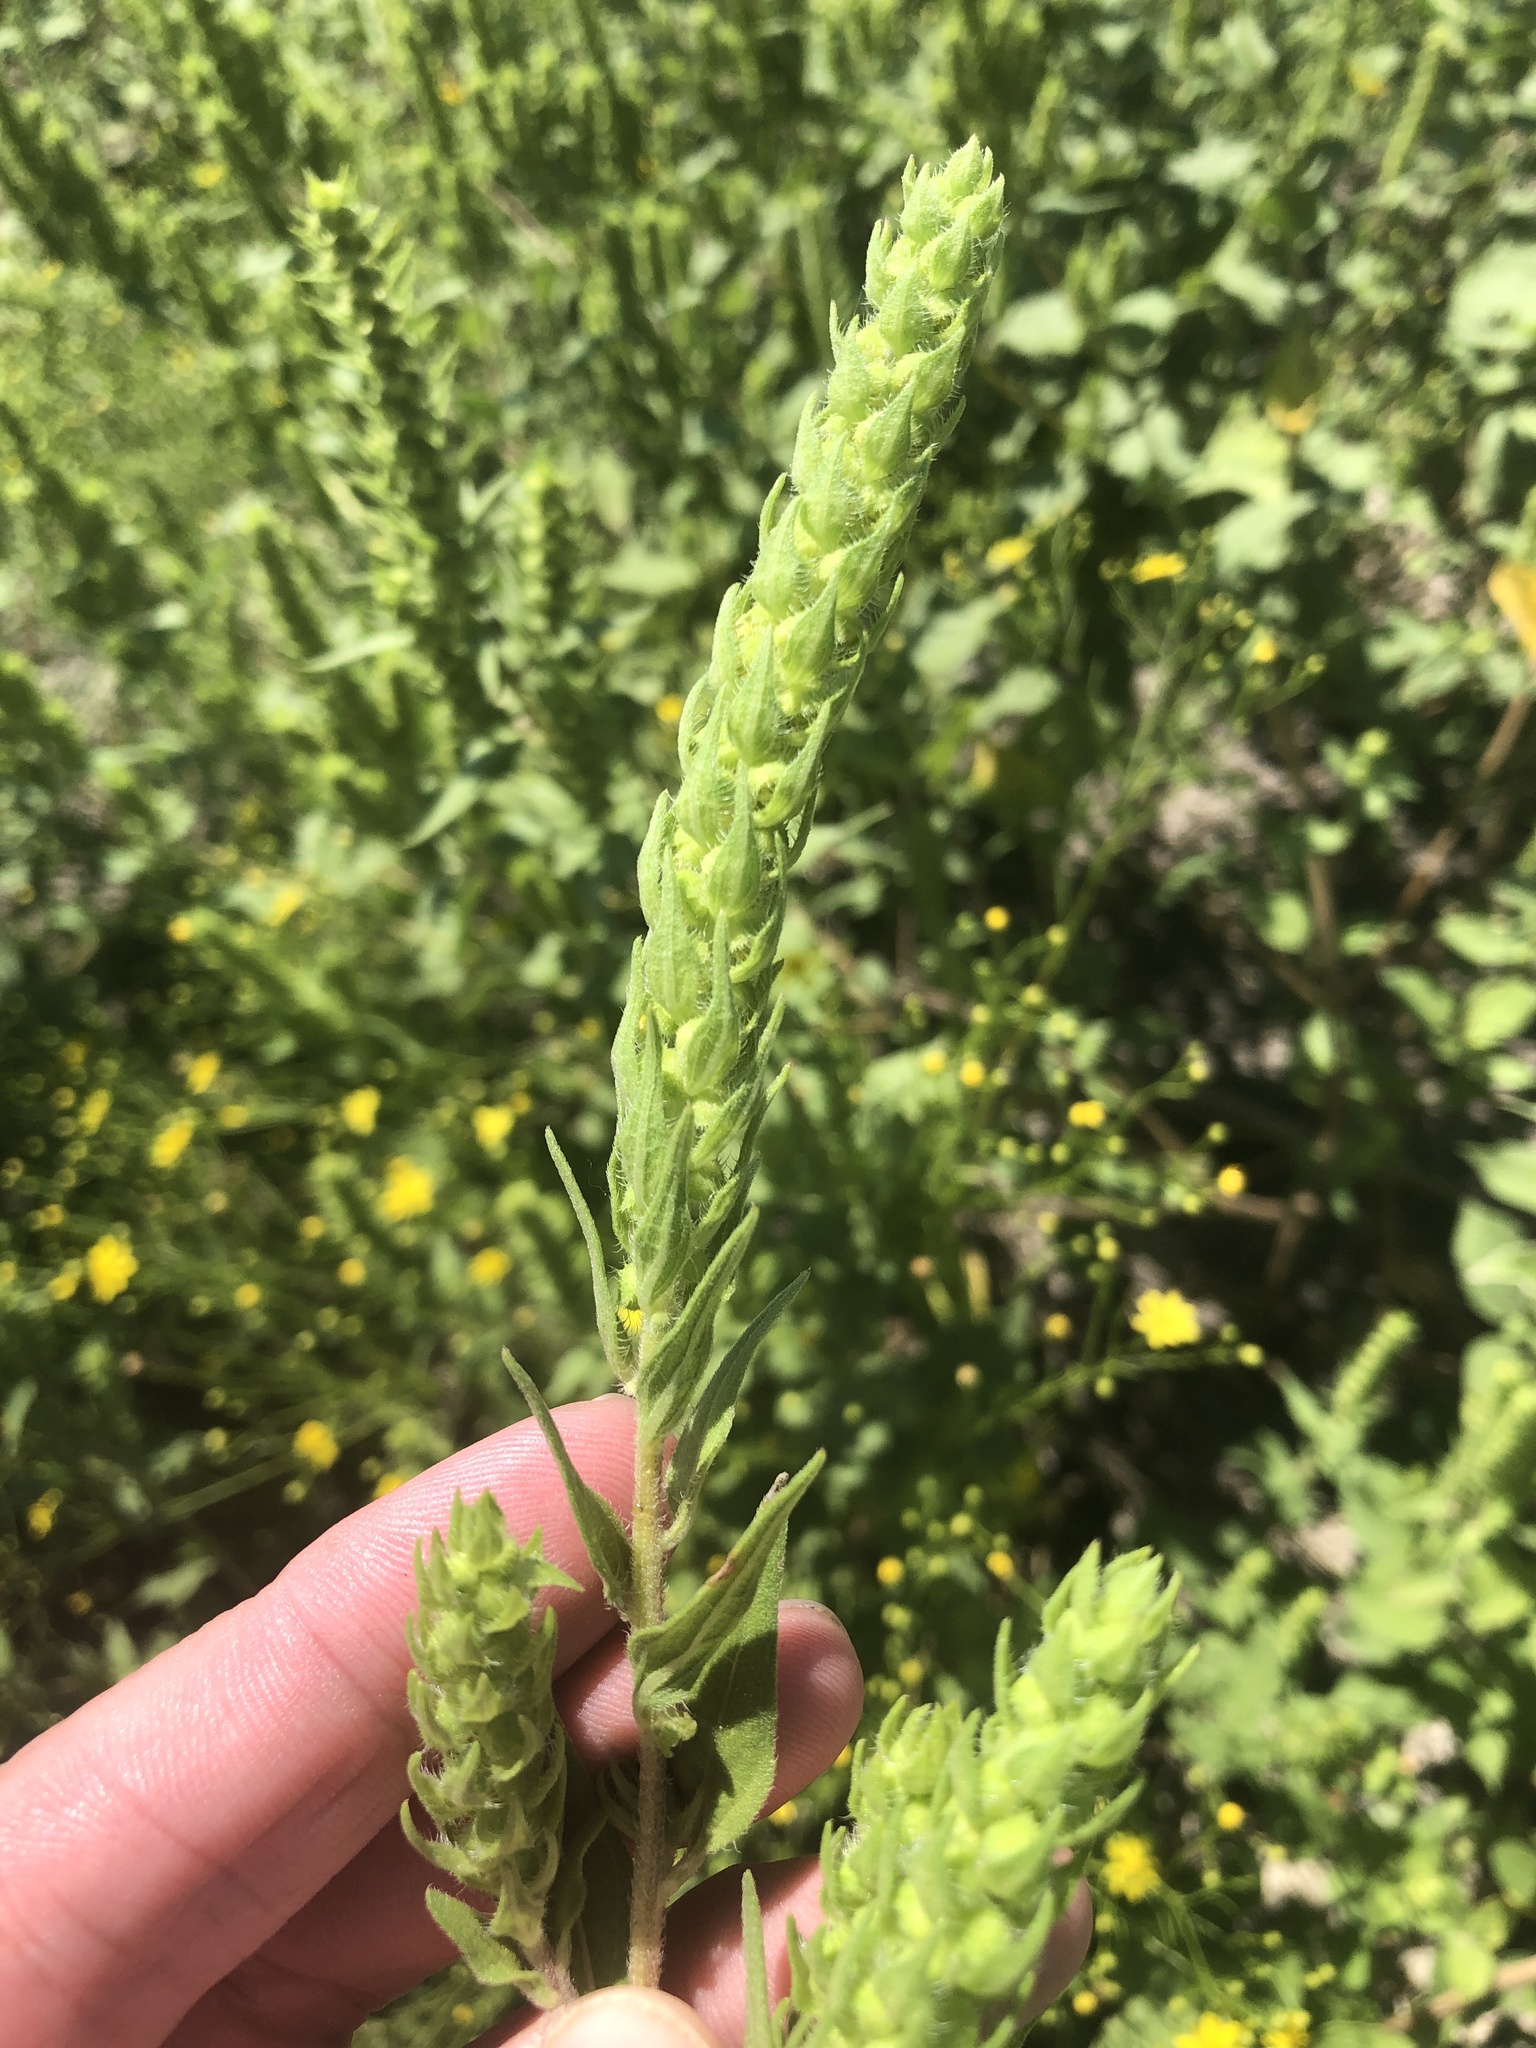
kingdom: Plantae
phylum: Tracheophyta
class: Magnoliopsida
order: Asterales
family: Asteraceae
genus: Iva
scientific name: Iva annua
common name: Marsh-elder
